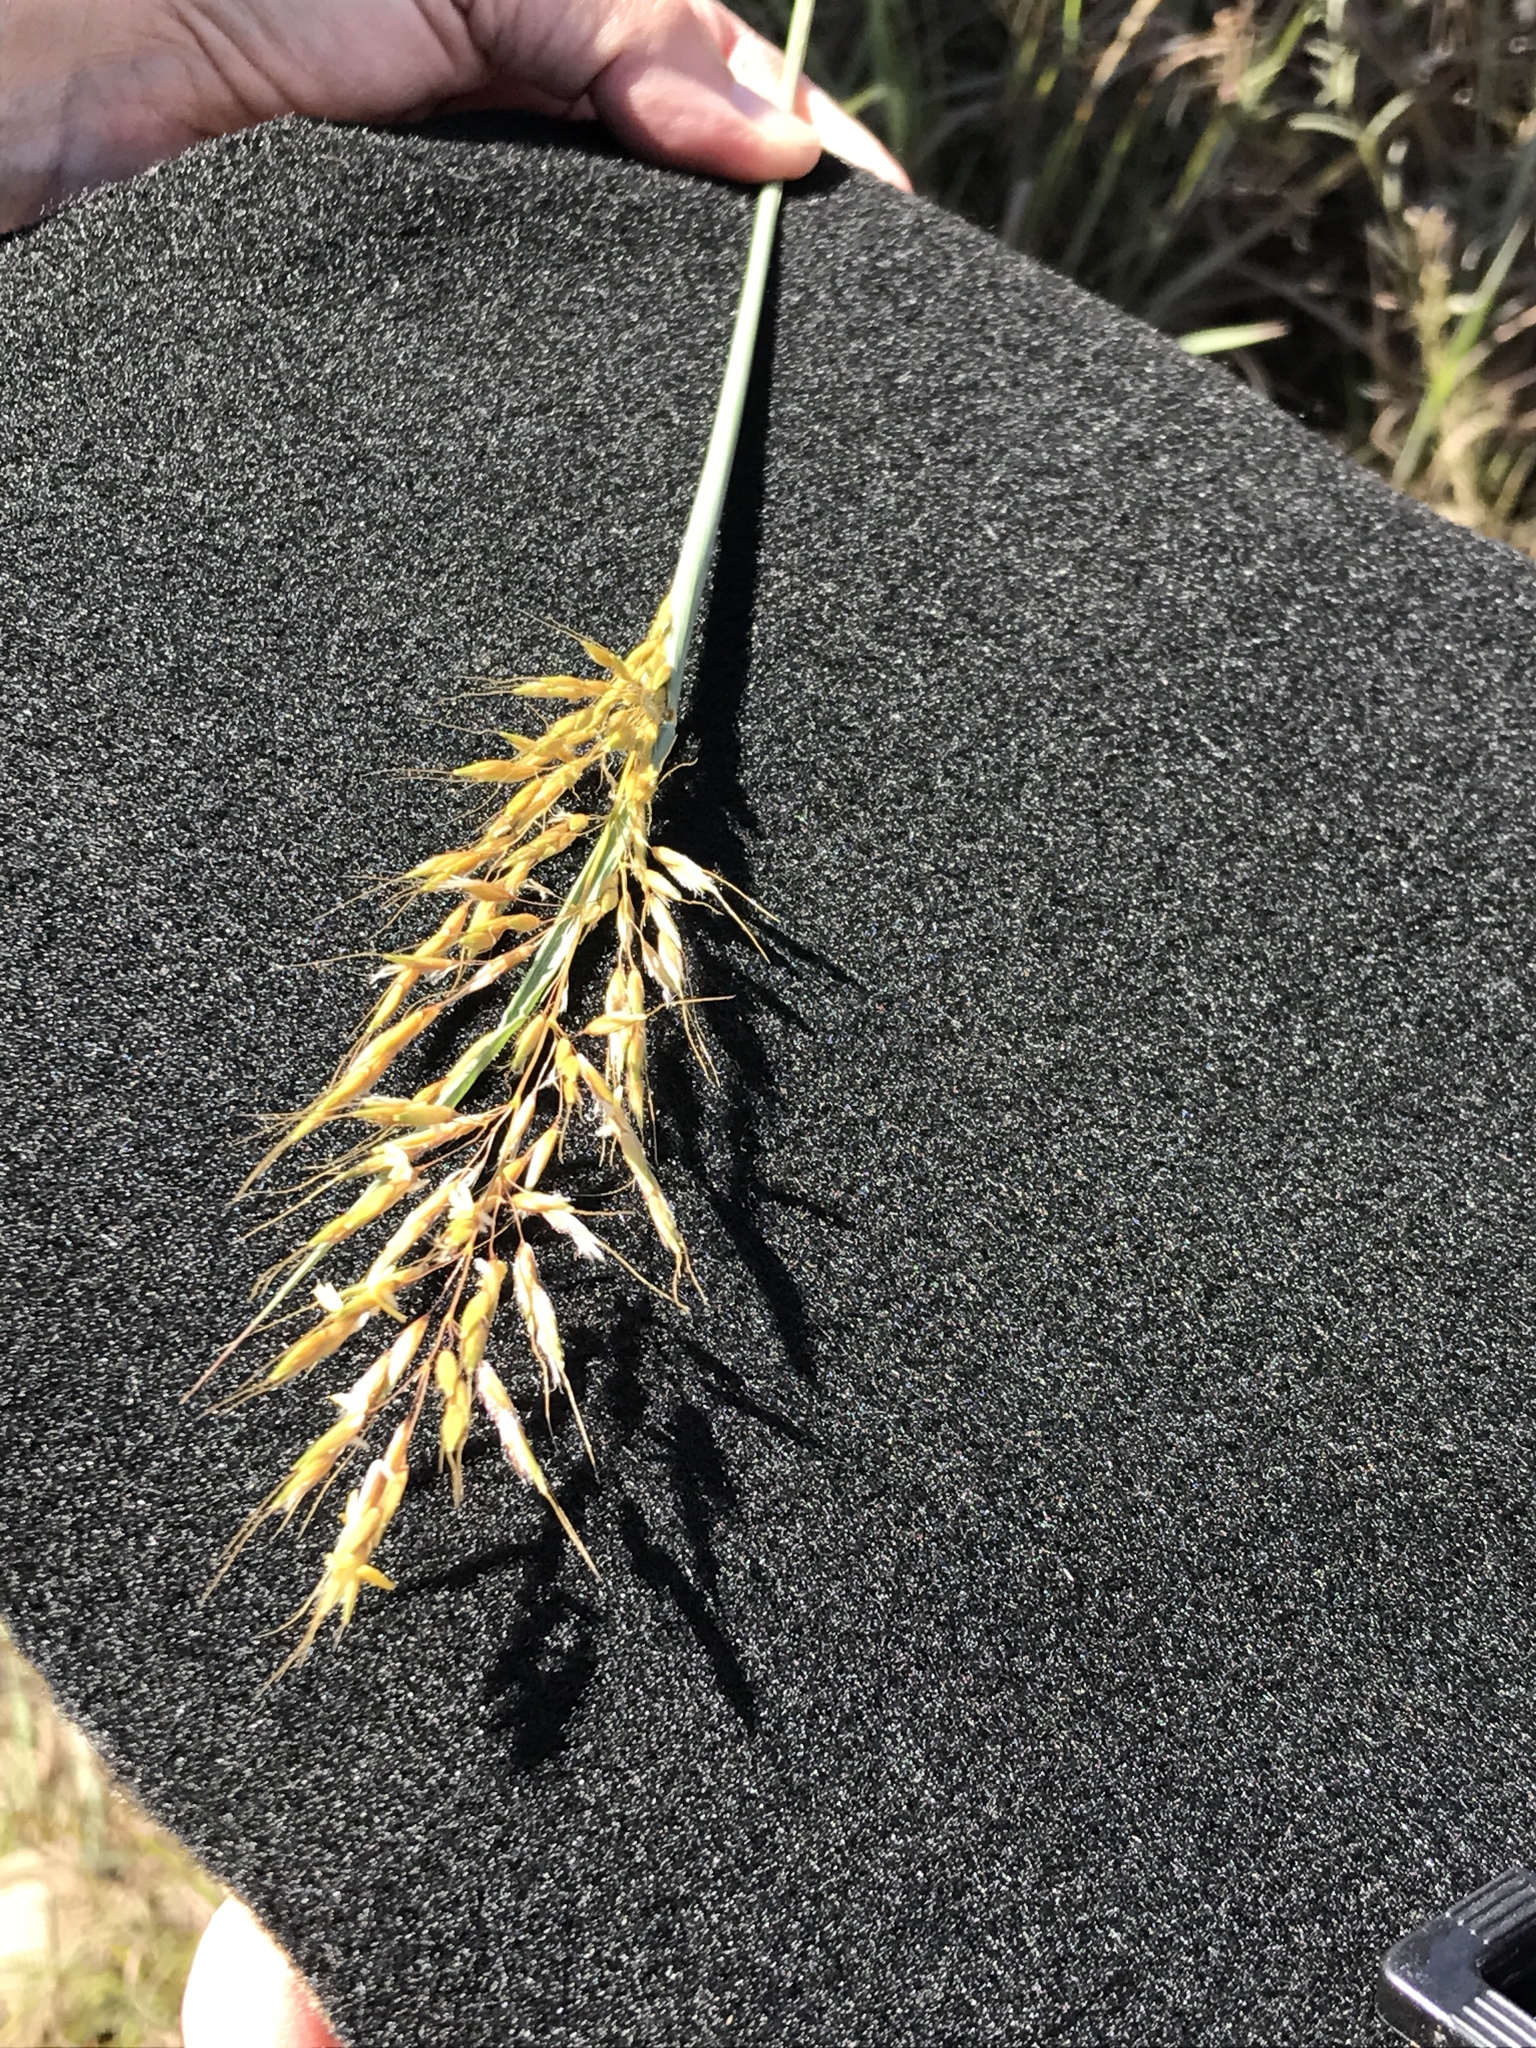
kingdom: Plantae
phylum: Tracheophyta
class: Liliopsida
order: Poales
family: Poaceae
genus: Sorghastrum
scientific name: Sorghastrum nutans
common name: Indian grass
